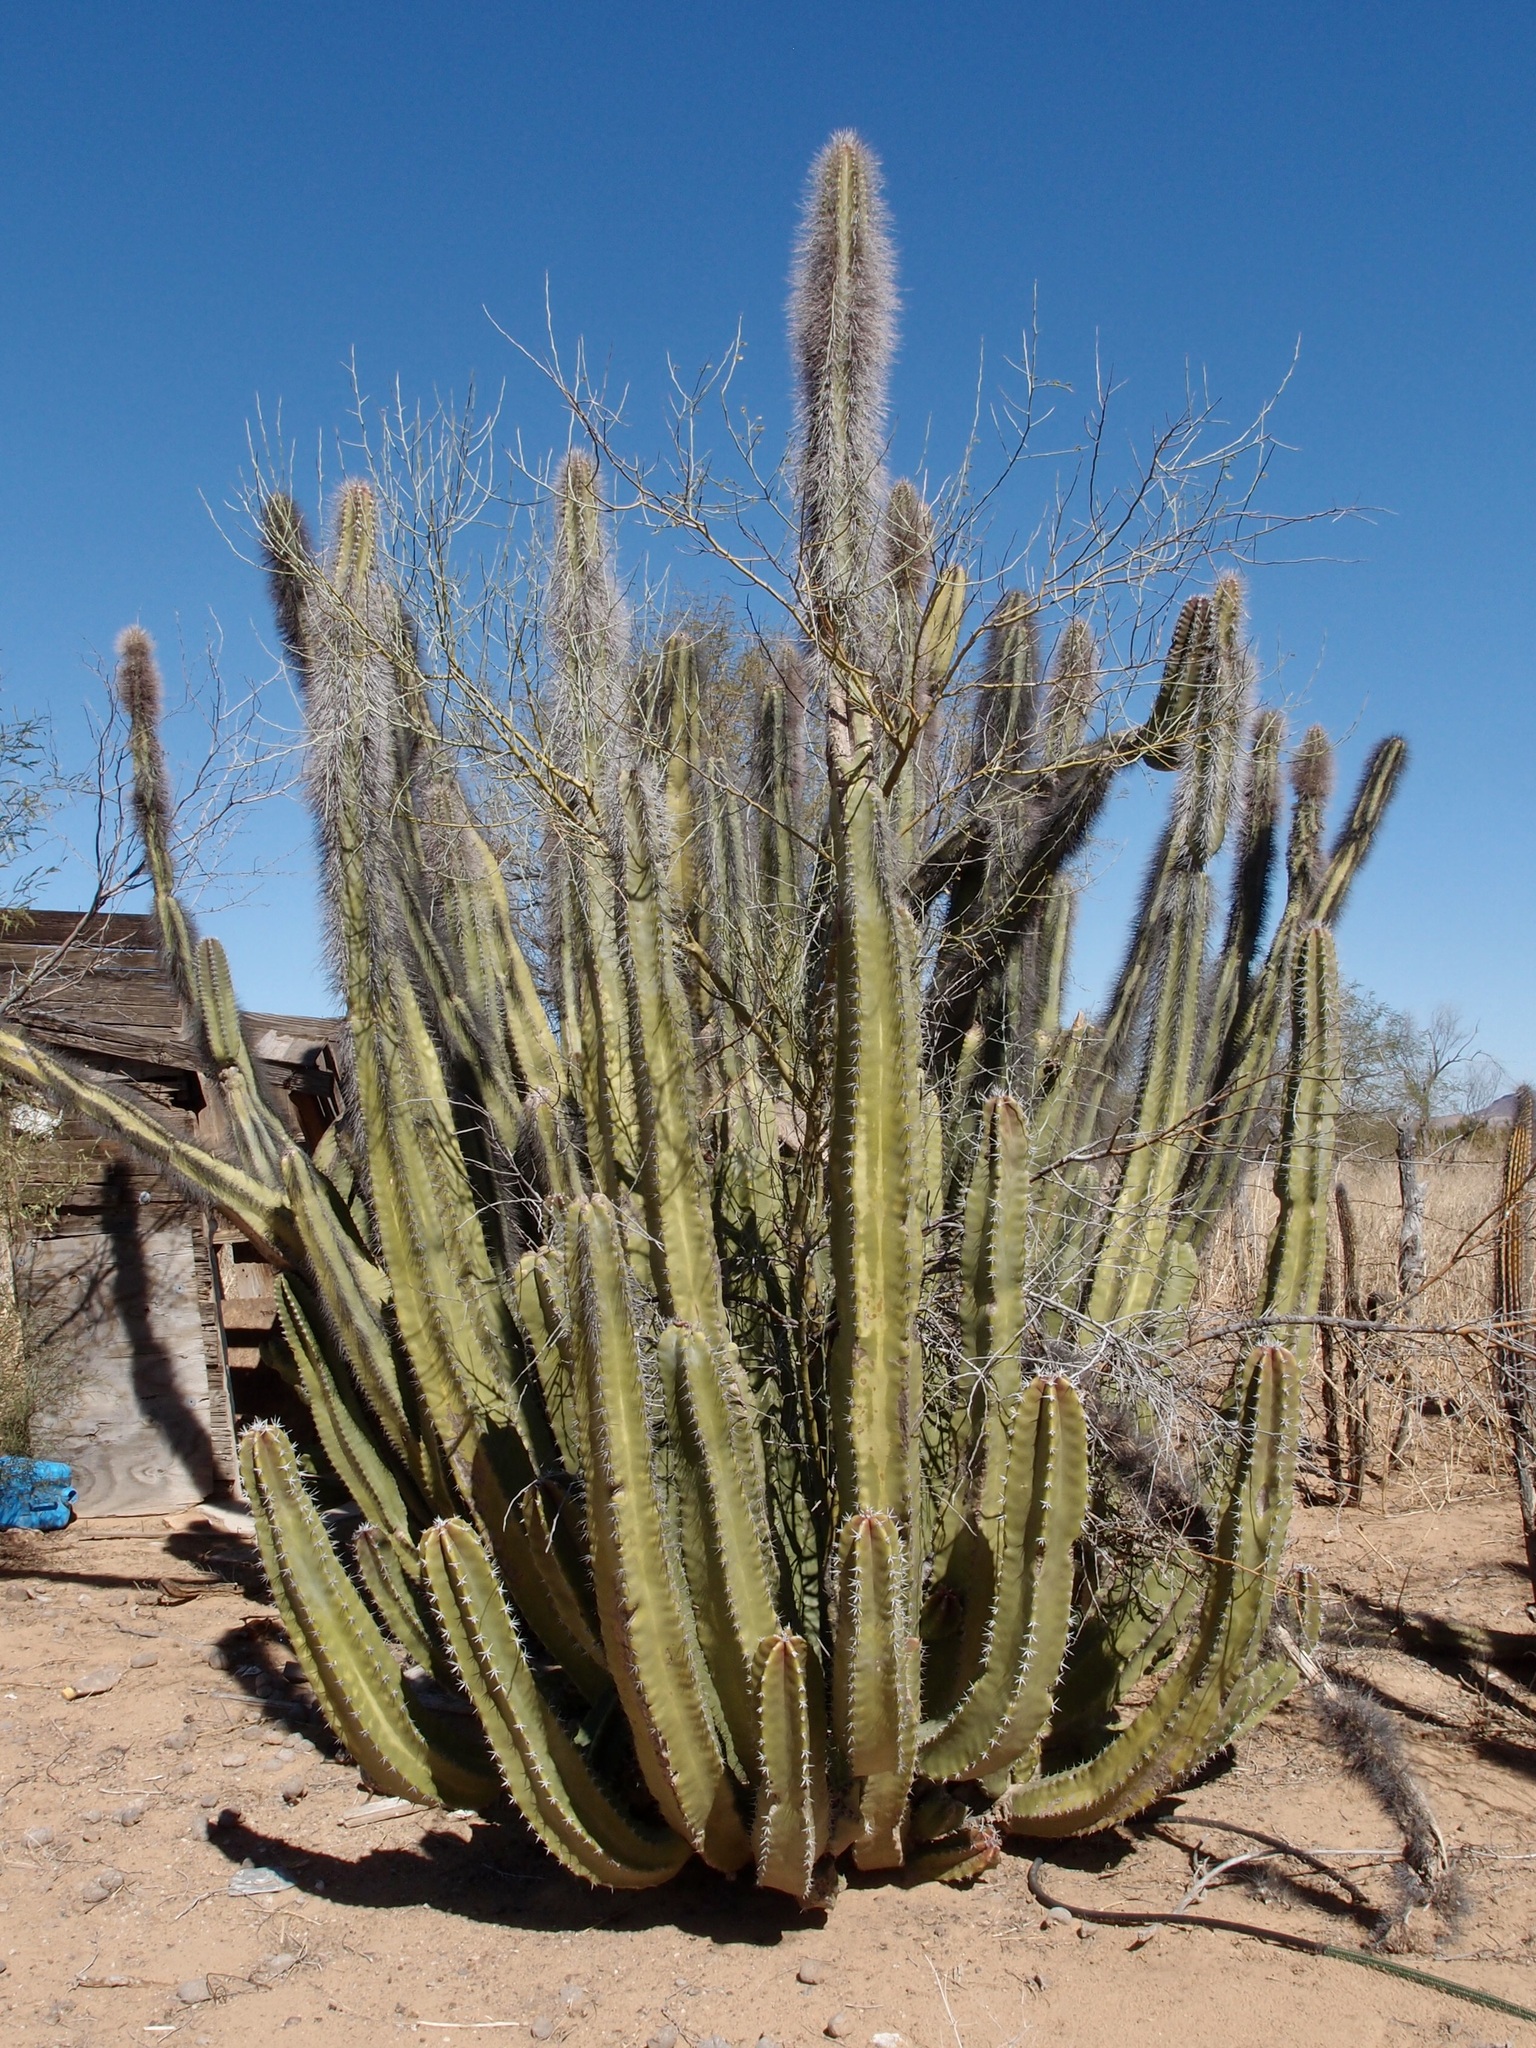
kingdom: Plantae
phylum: Tracheophyta
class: Magnoliopsida
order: Caryophyllales
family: Cactaceae
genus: Pachycereus
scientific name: Pachycereus schottii
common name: Senita cactus
